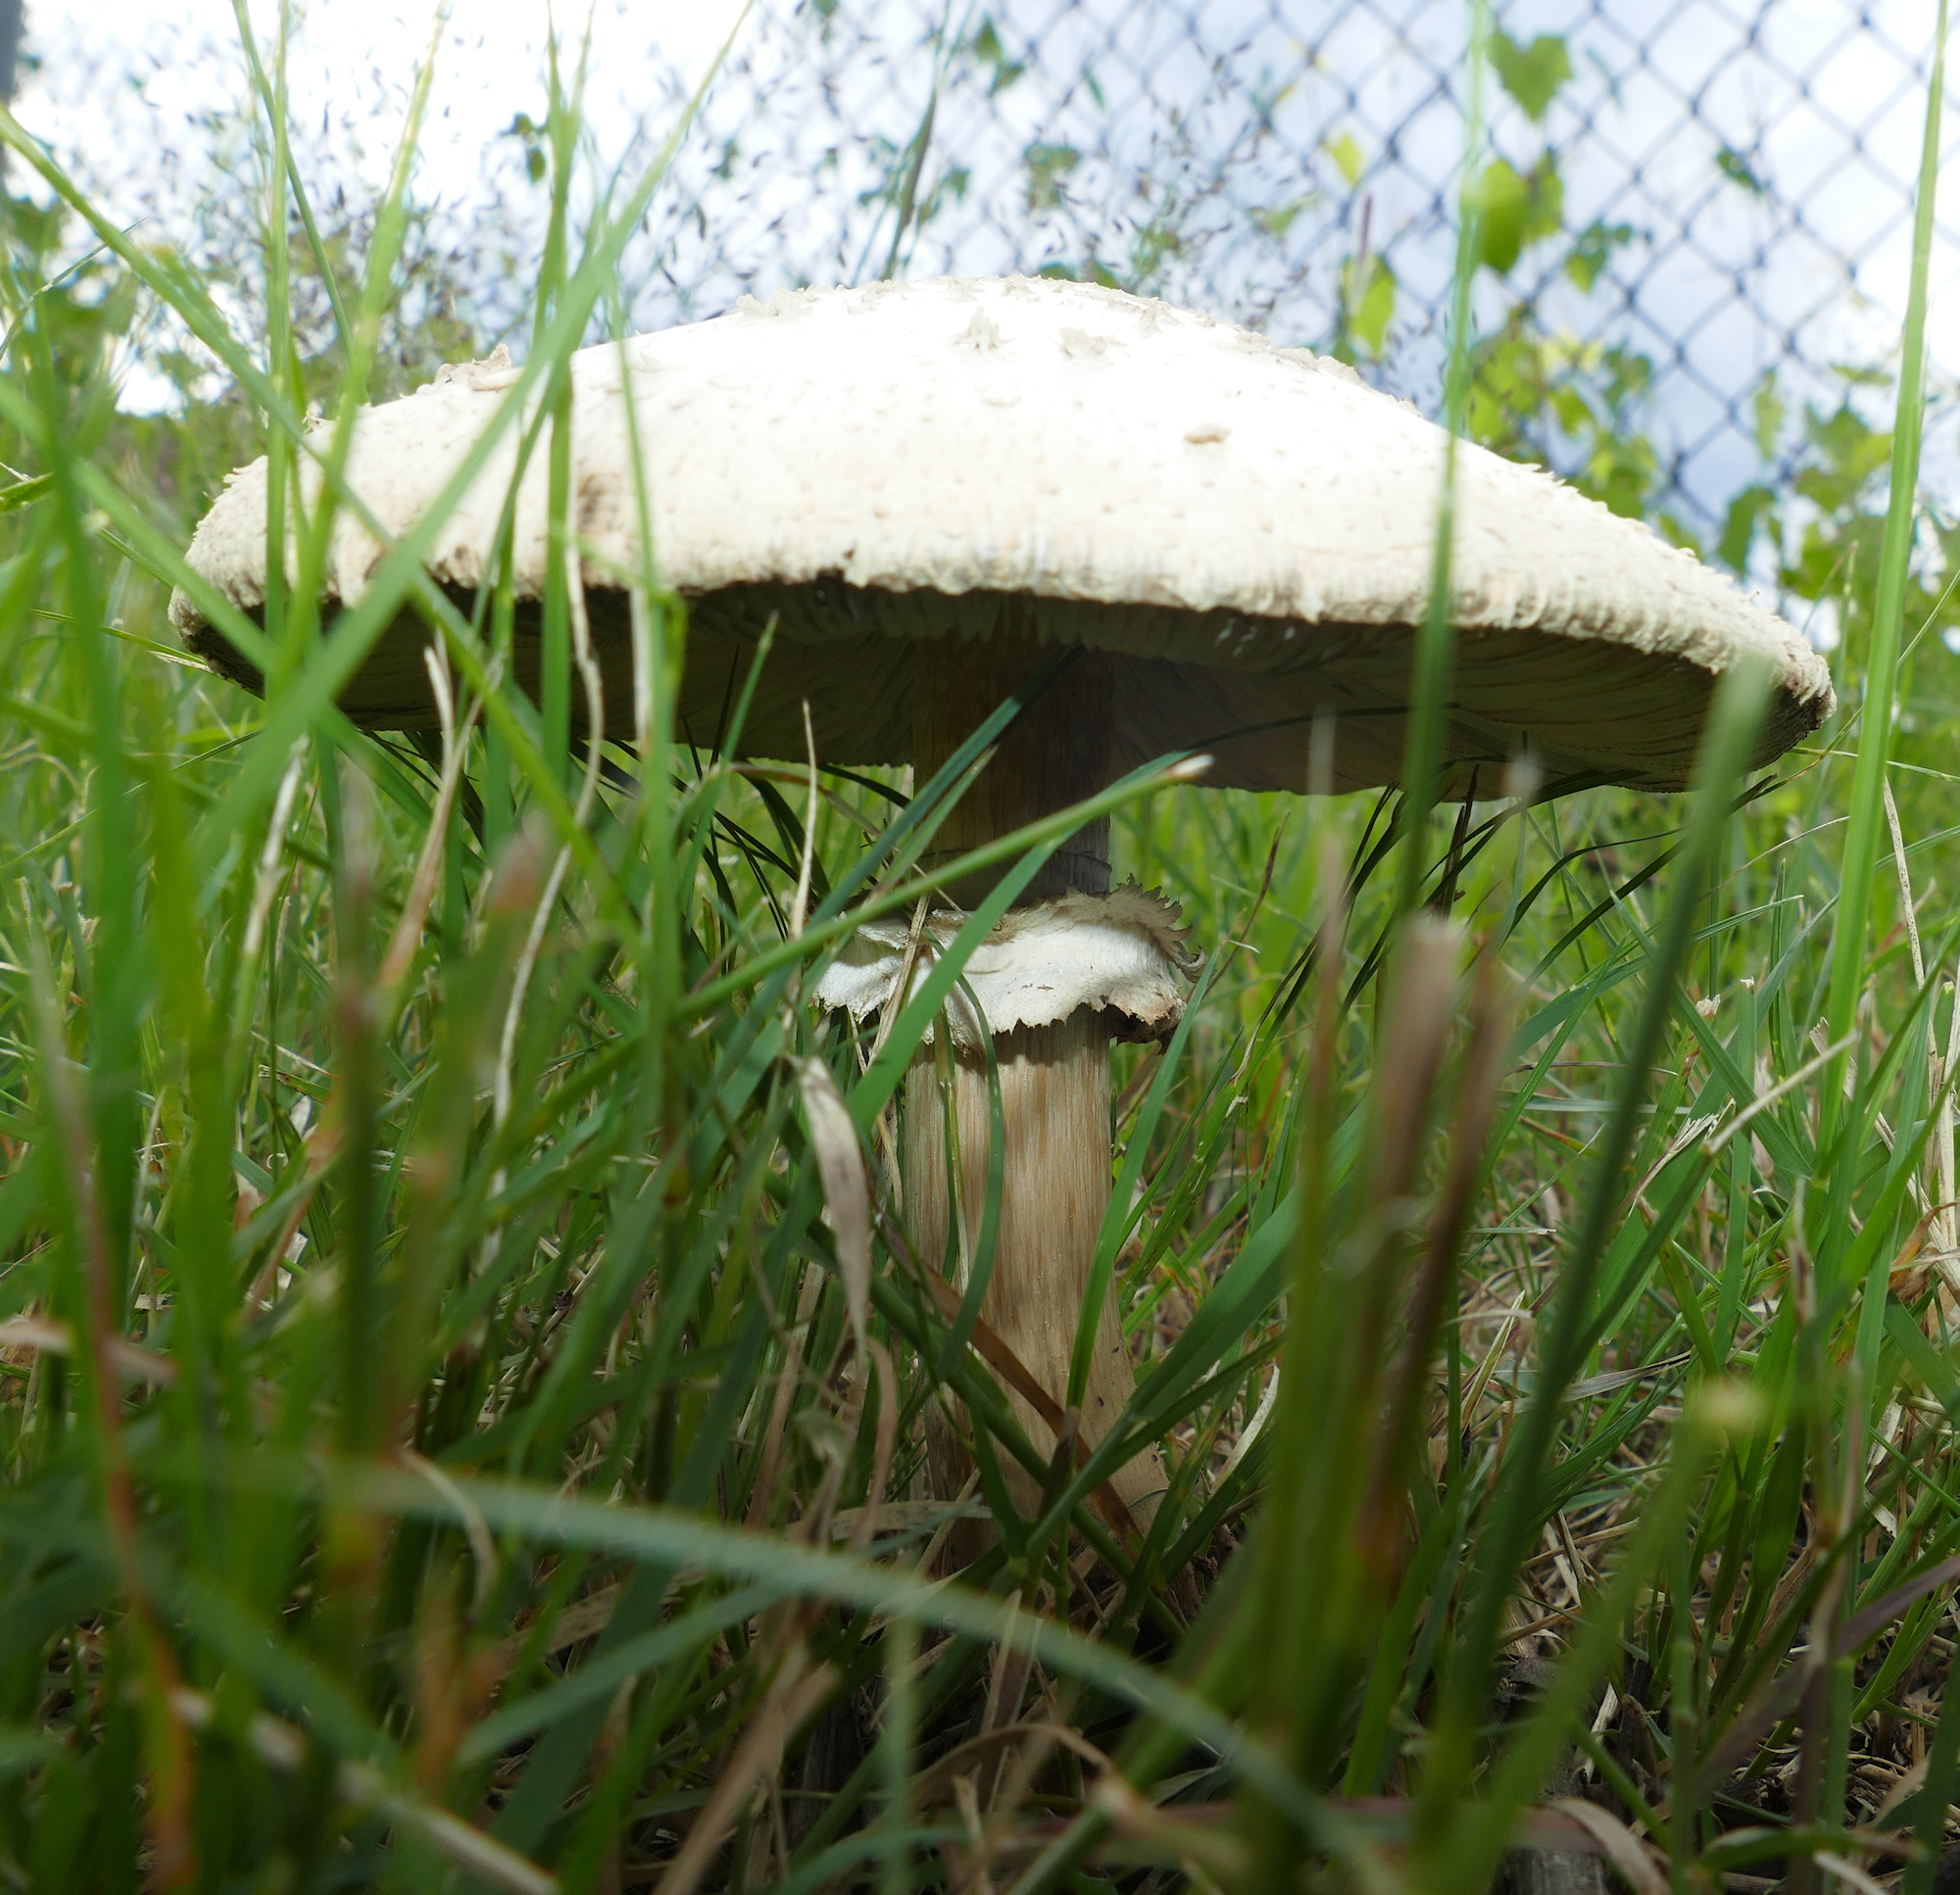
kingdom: Fungi
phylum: Basidiomycota
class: Agaricomycetes
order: Agaricales
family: Agaricaceae
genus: Chlorophyllum
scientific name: Chlorophyllum molybdites
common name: False parasol
